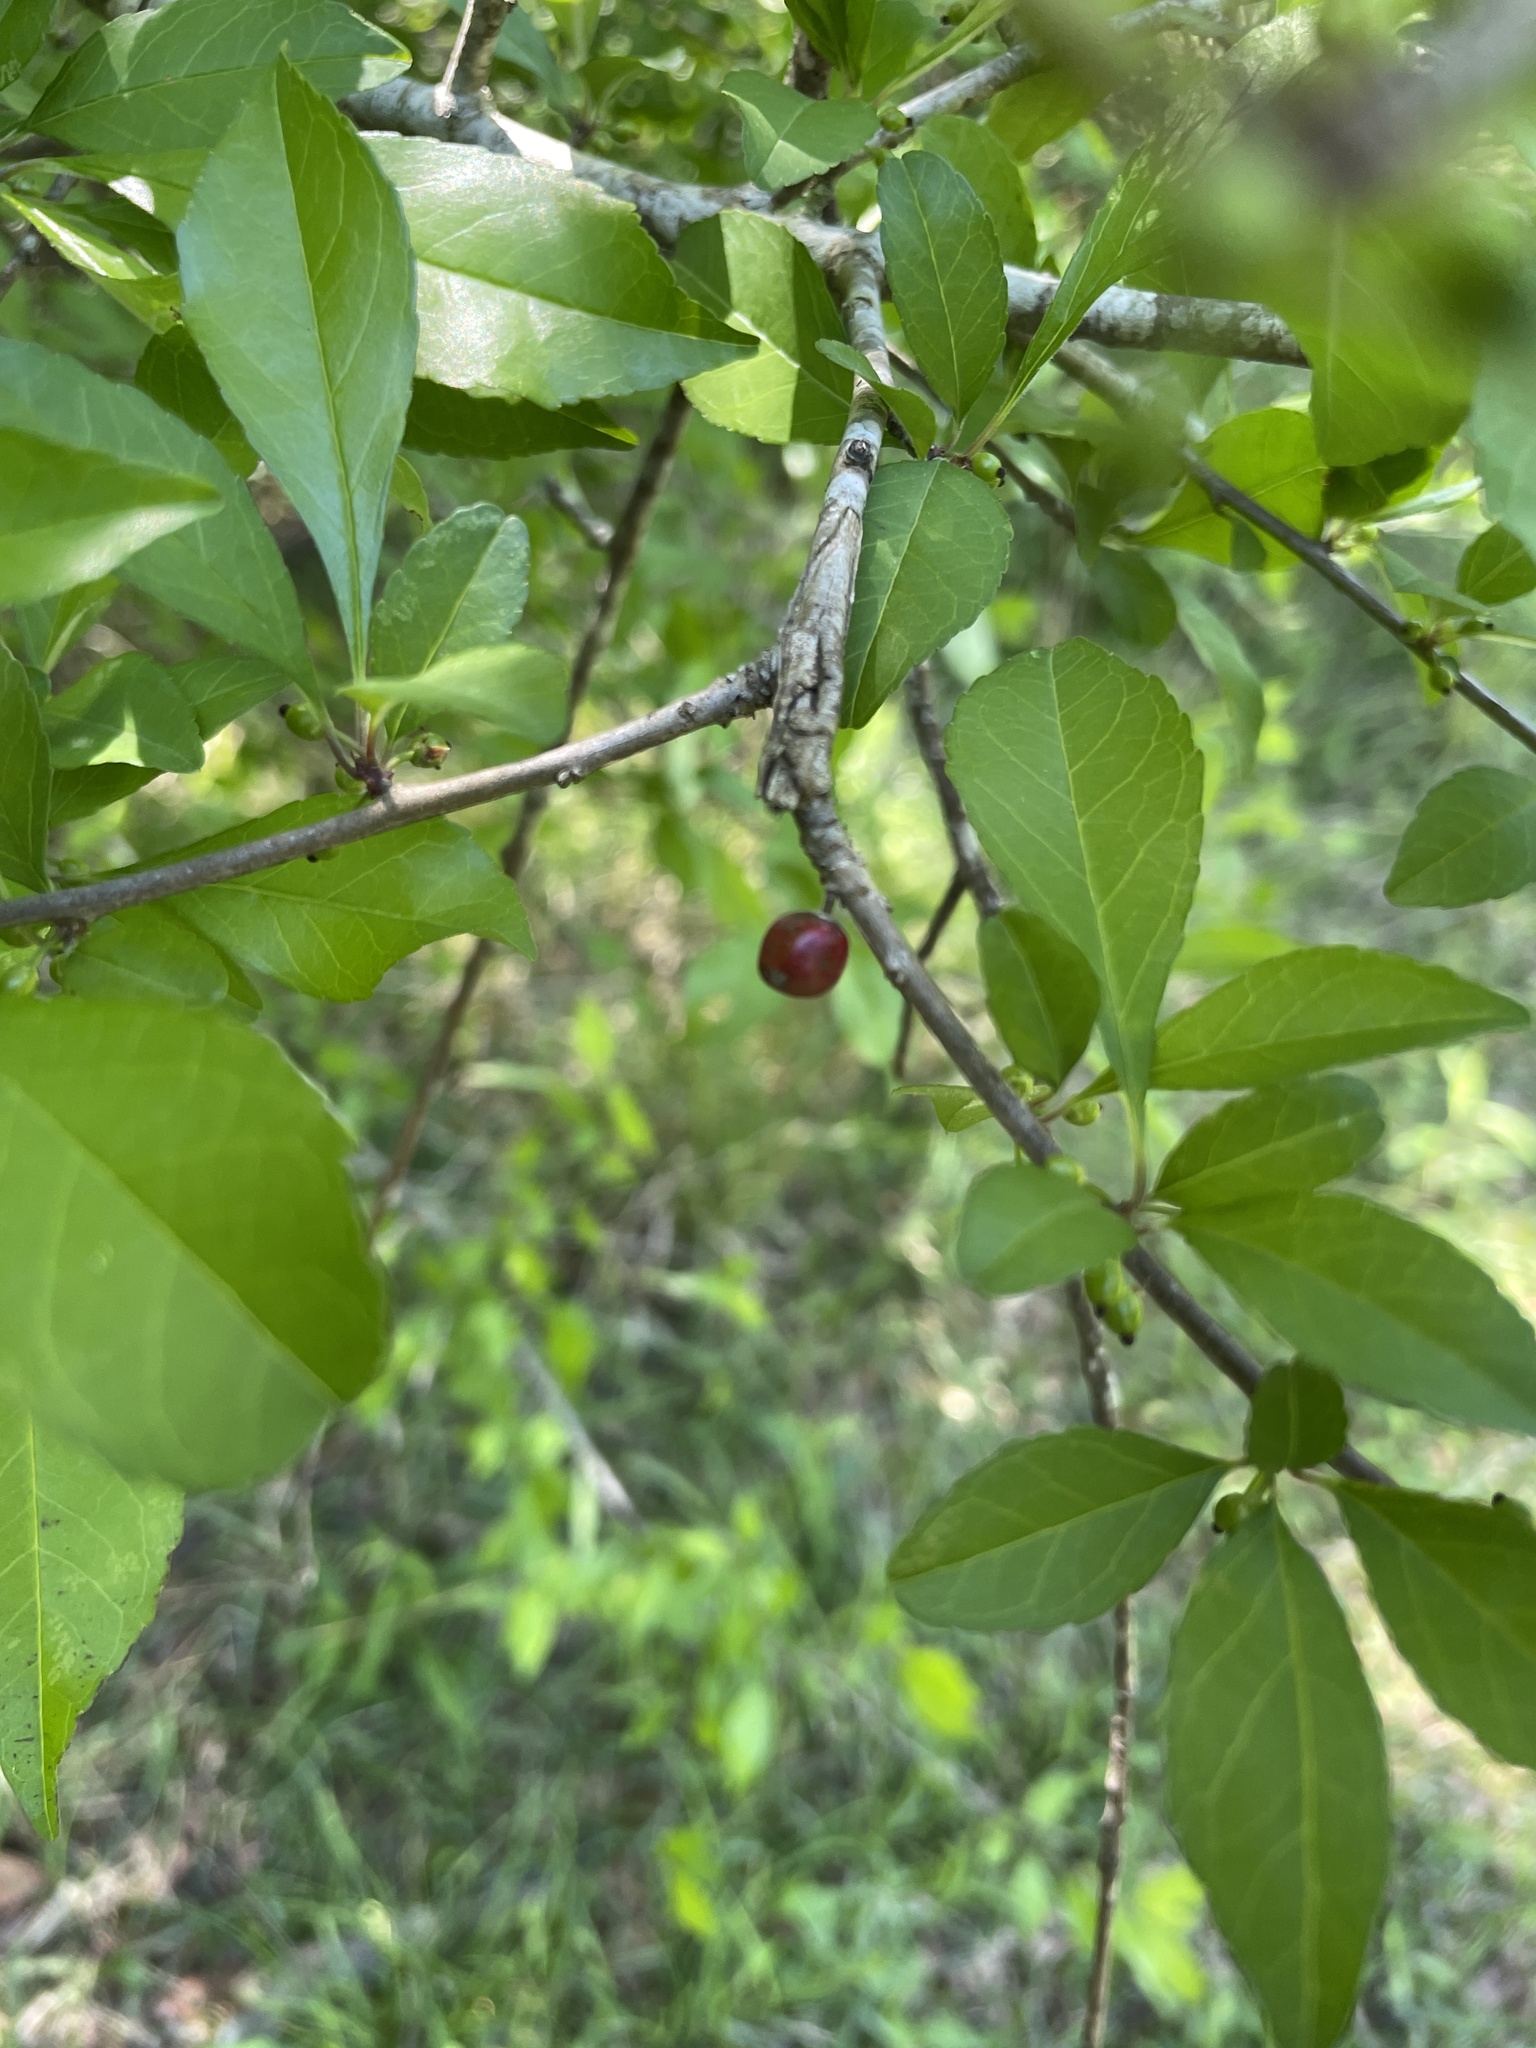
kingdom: Plantae
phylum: Tracheophyta
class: Magnoliopsida
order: Aquifoliales
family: Aquifoliaceae
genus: Ilex
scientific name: Ilex decidua
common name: Possum-haw
